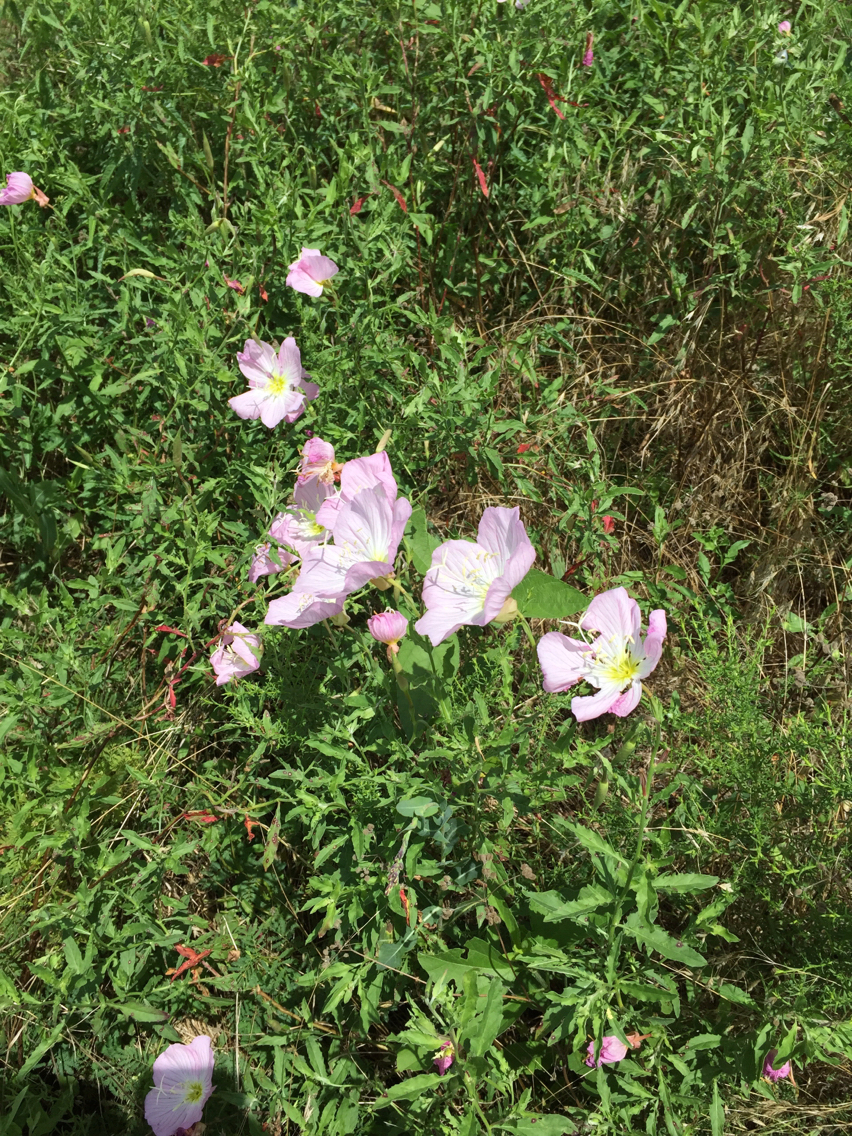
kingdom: Plantae
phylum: Tracheophyta
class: Magnoliopsida
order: Myrtales
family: Onagraceae
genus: Oenothera
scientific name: Oenothera speciosa
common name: White evening-primrose
